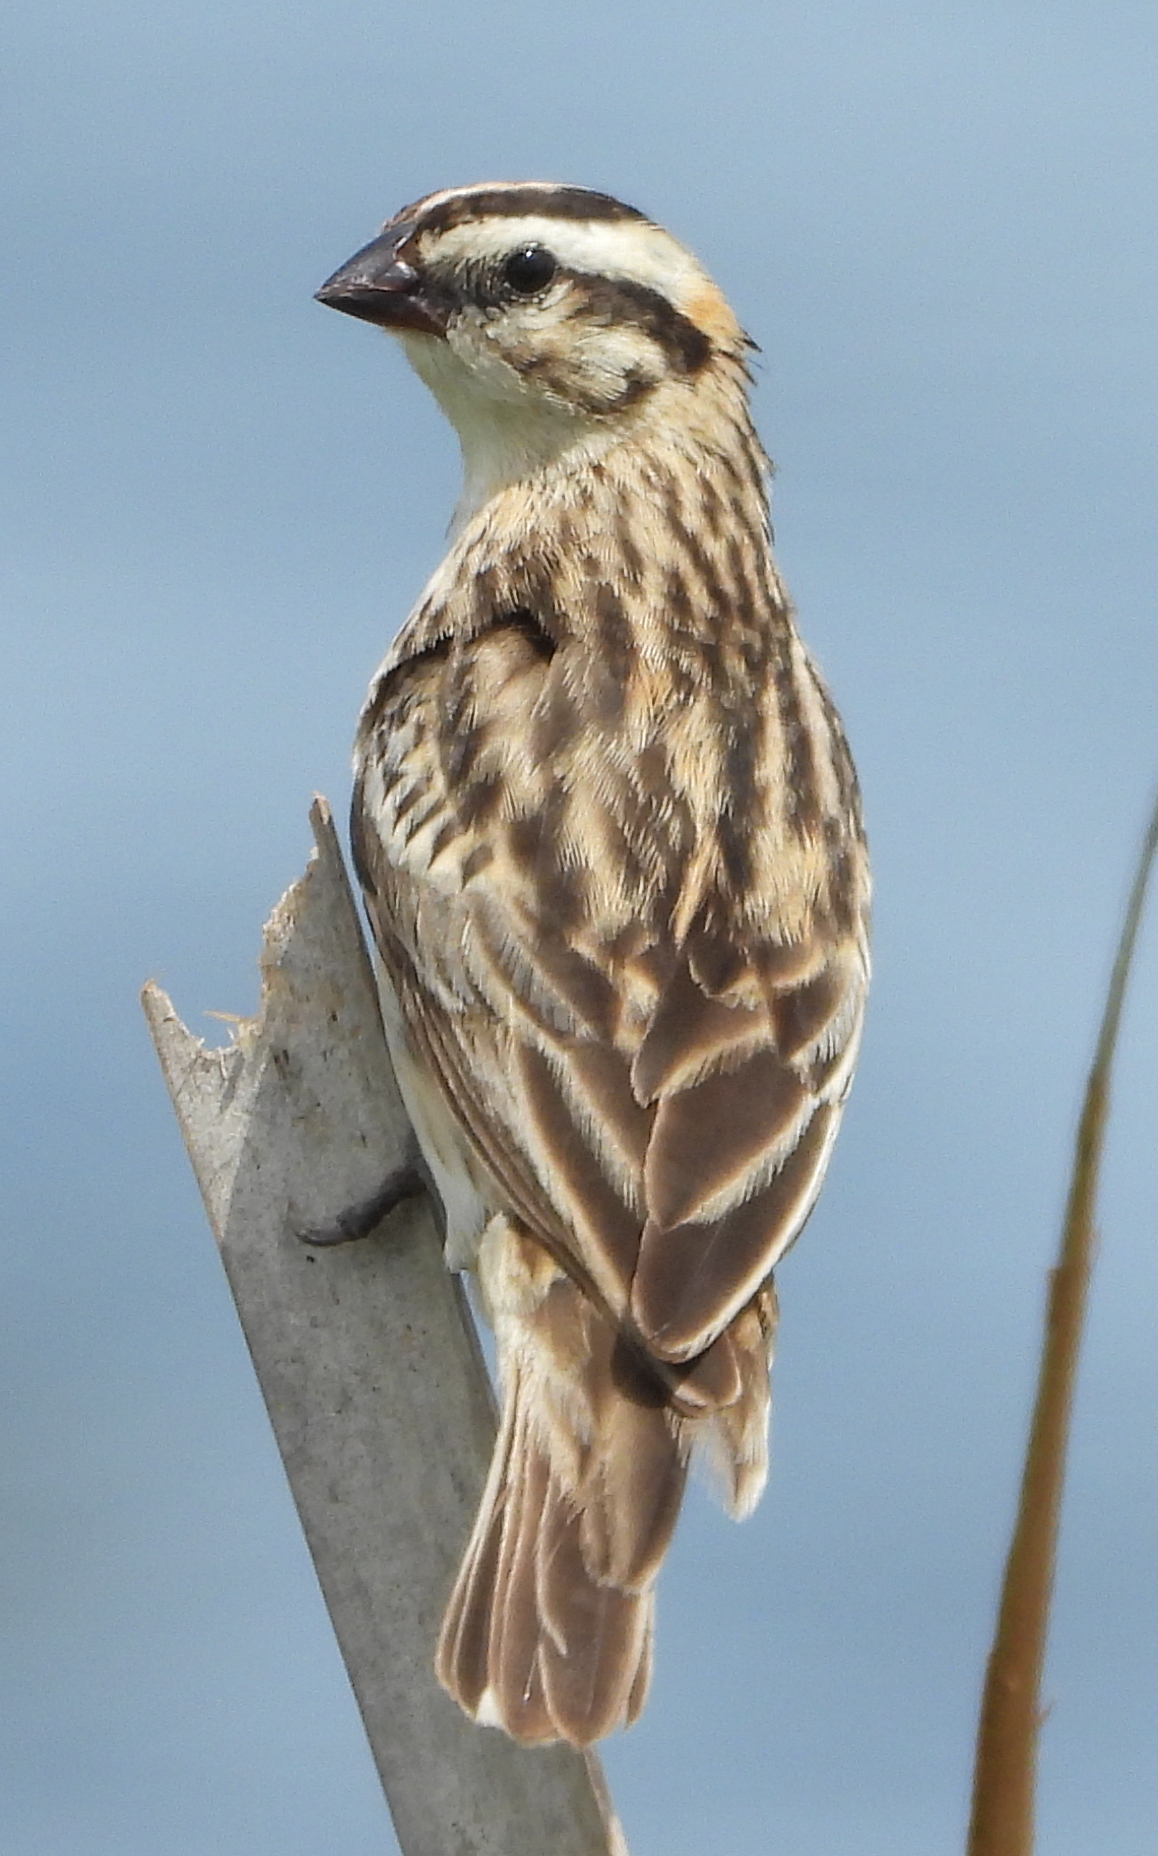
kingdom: Animalia
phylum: Chordata
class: Aves
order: Passeriformes
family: Viduidae
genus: Vidua
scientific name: Vidua macroura
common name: Pin-tailed whydah
